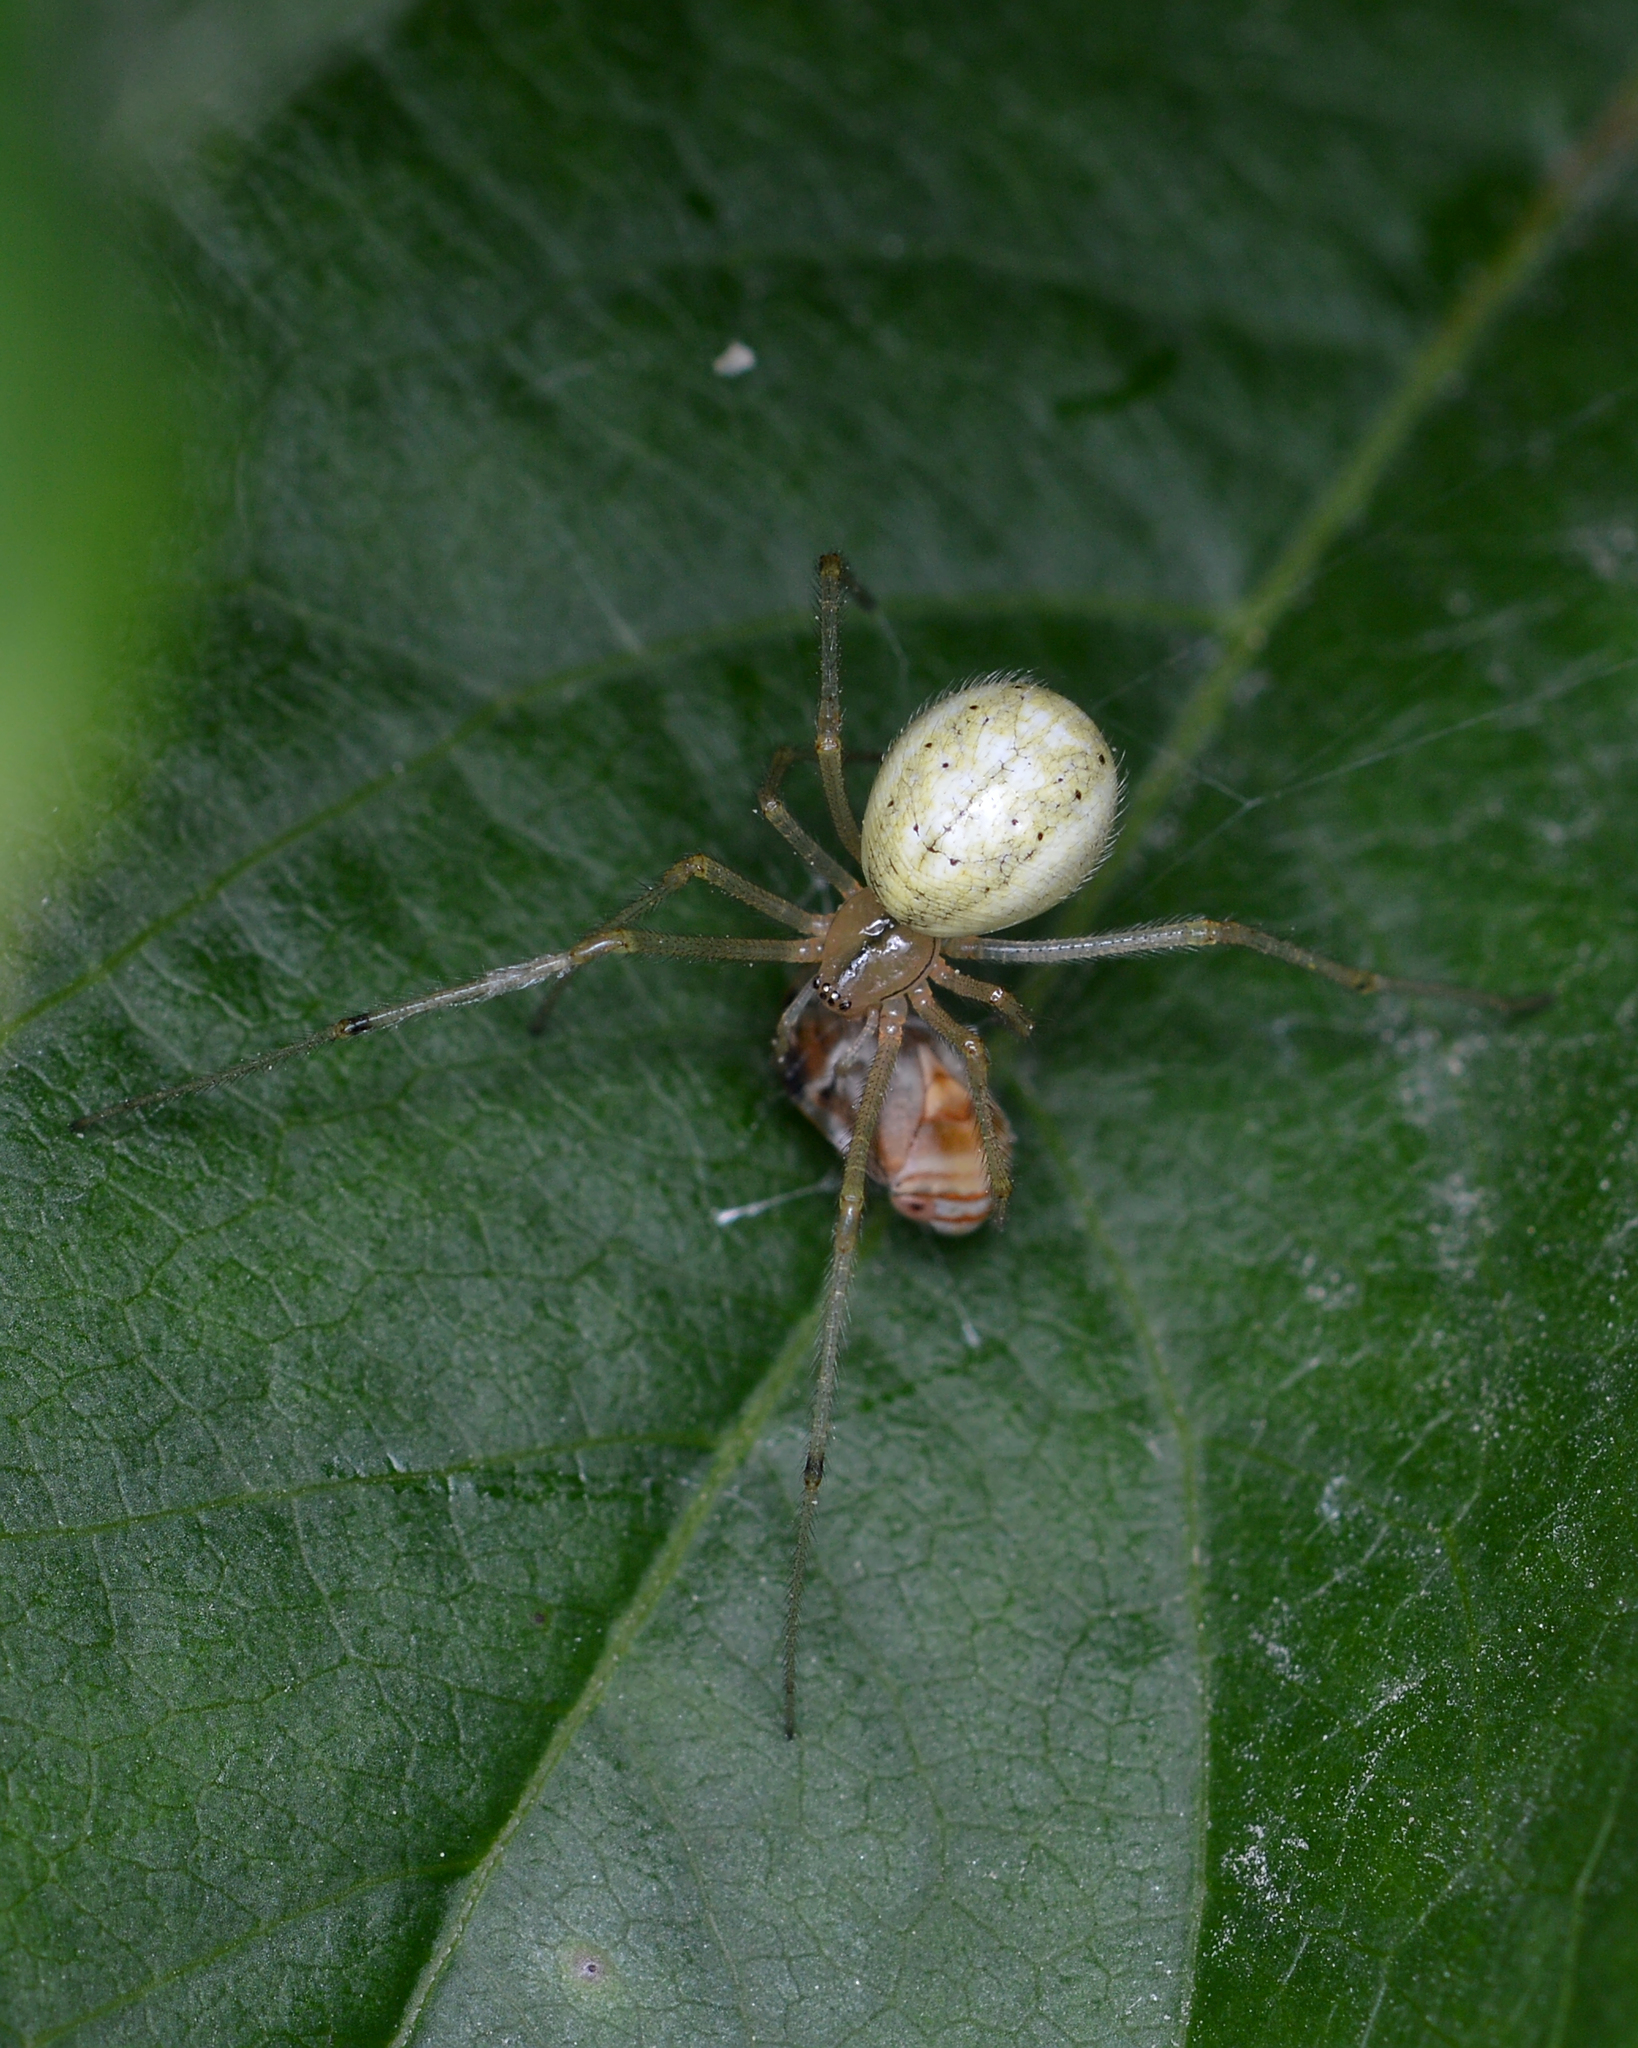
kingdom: Animalia
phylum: Arthropoda
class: Arachnida
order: Araneae
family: Theridiidae
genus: Enoplognatha
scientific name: Enoplognatha ovata
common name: Common candy-striped spider
